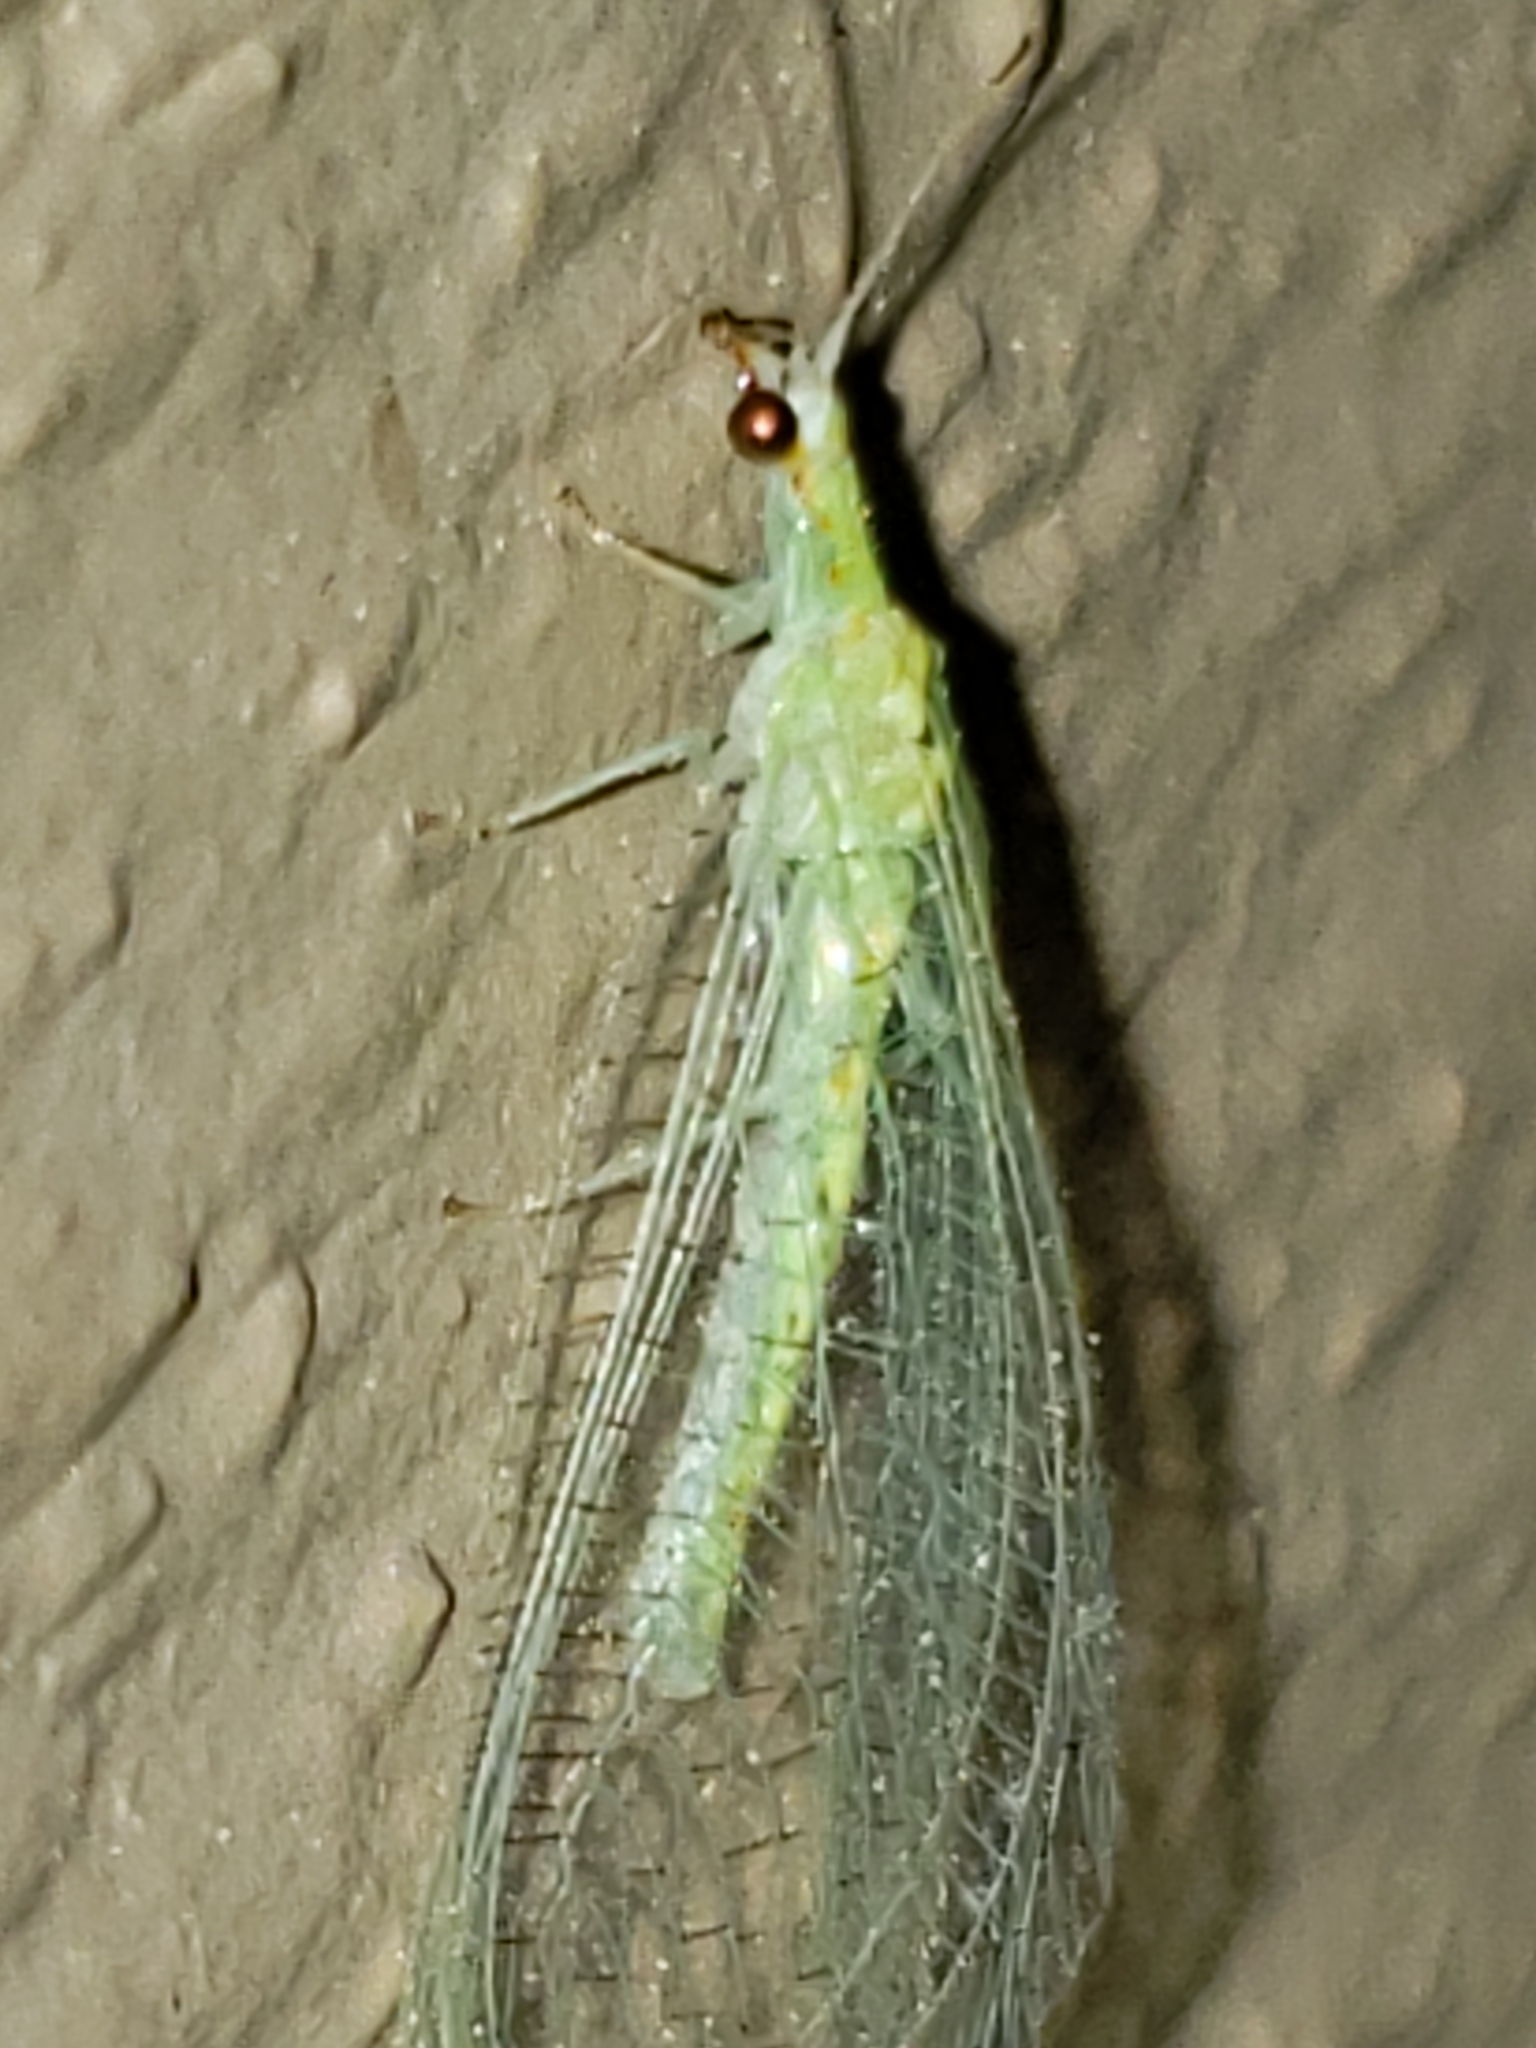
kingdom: Animalia
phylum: Arthropoda
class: Insecta
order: Neuroptera
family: Chrysopidae
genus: Chrysopa
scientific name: Chrysopa quadripunctata
